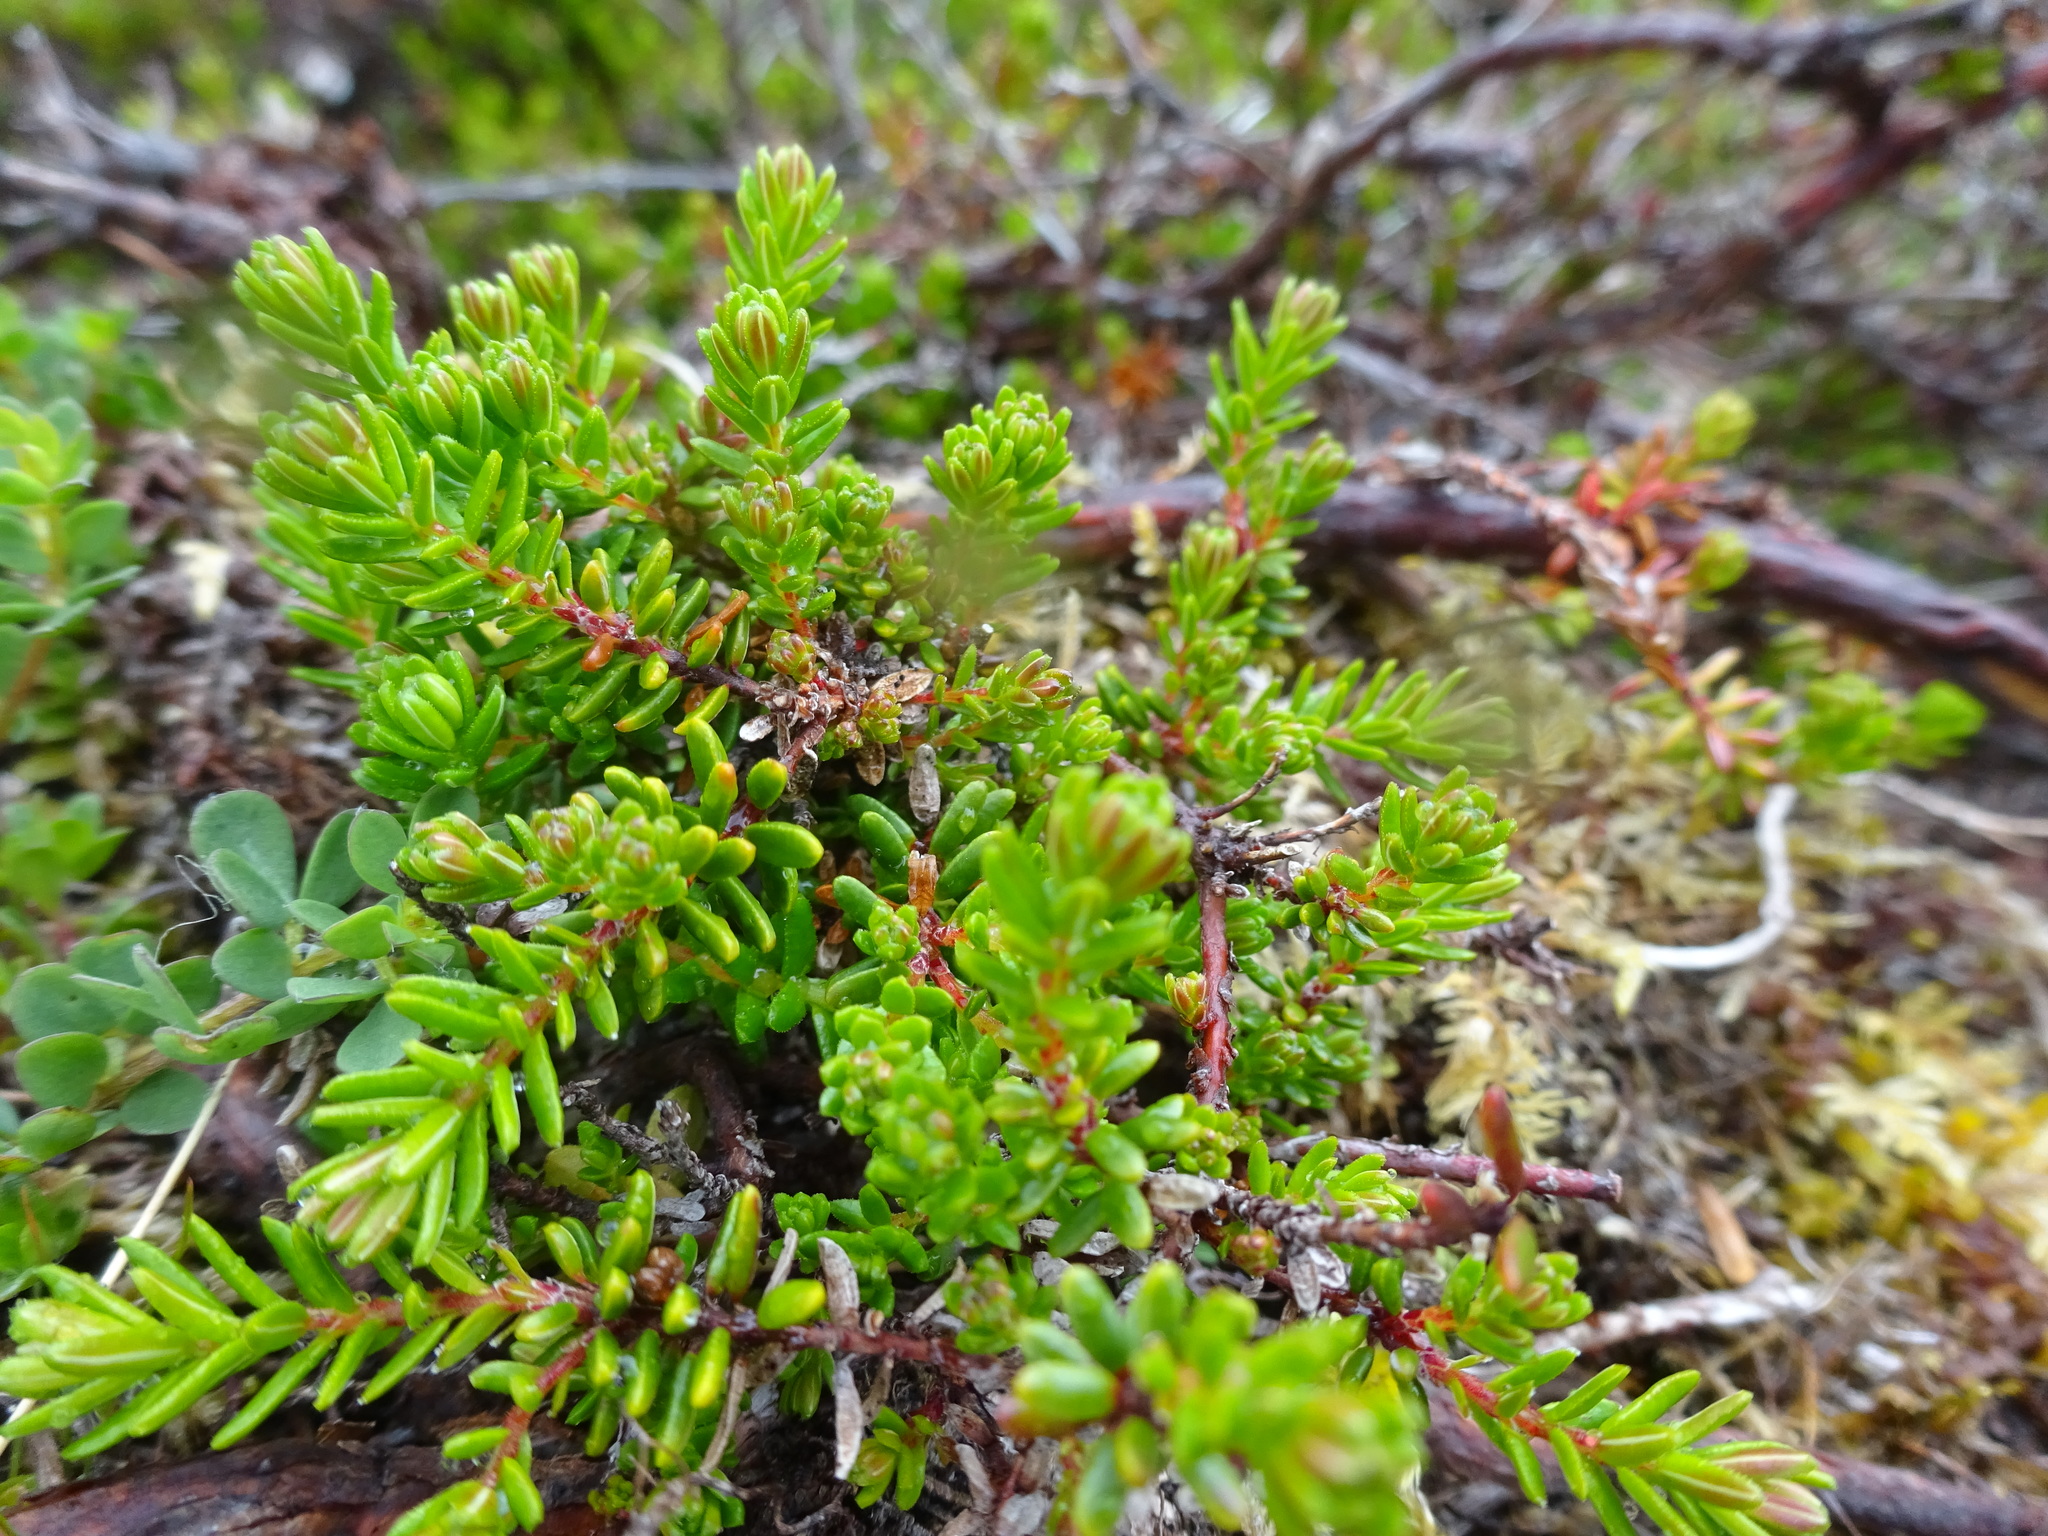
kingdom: Plantae
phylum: Tracheophyta
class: Magnoliopsida
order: Ericales
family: Ericaceae
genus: Empetrum
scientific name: Empetrum nigrum
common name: Black crowberry
